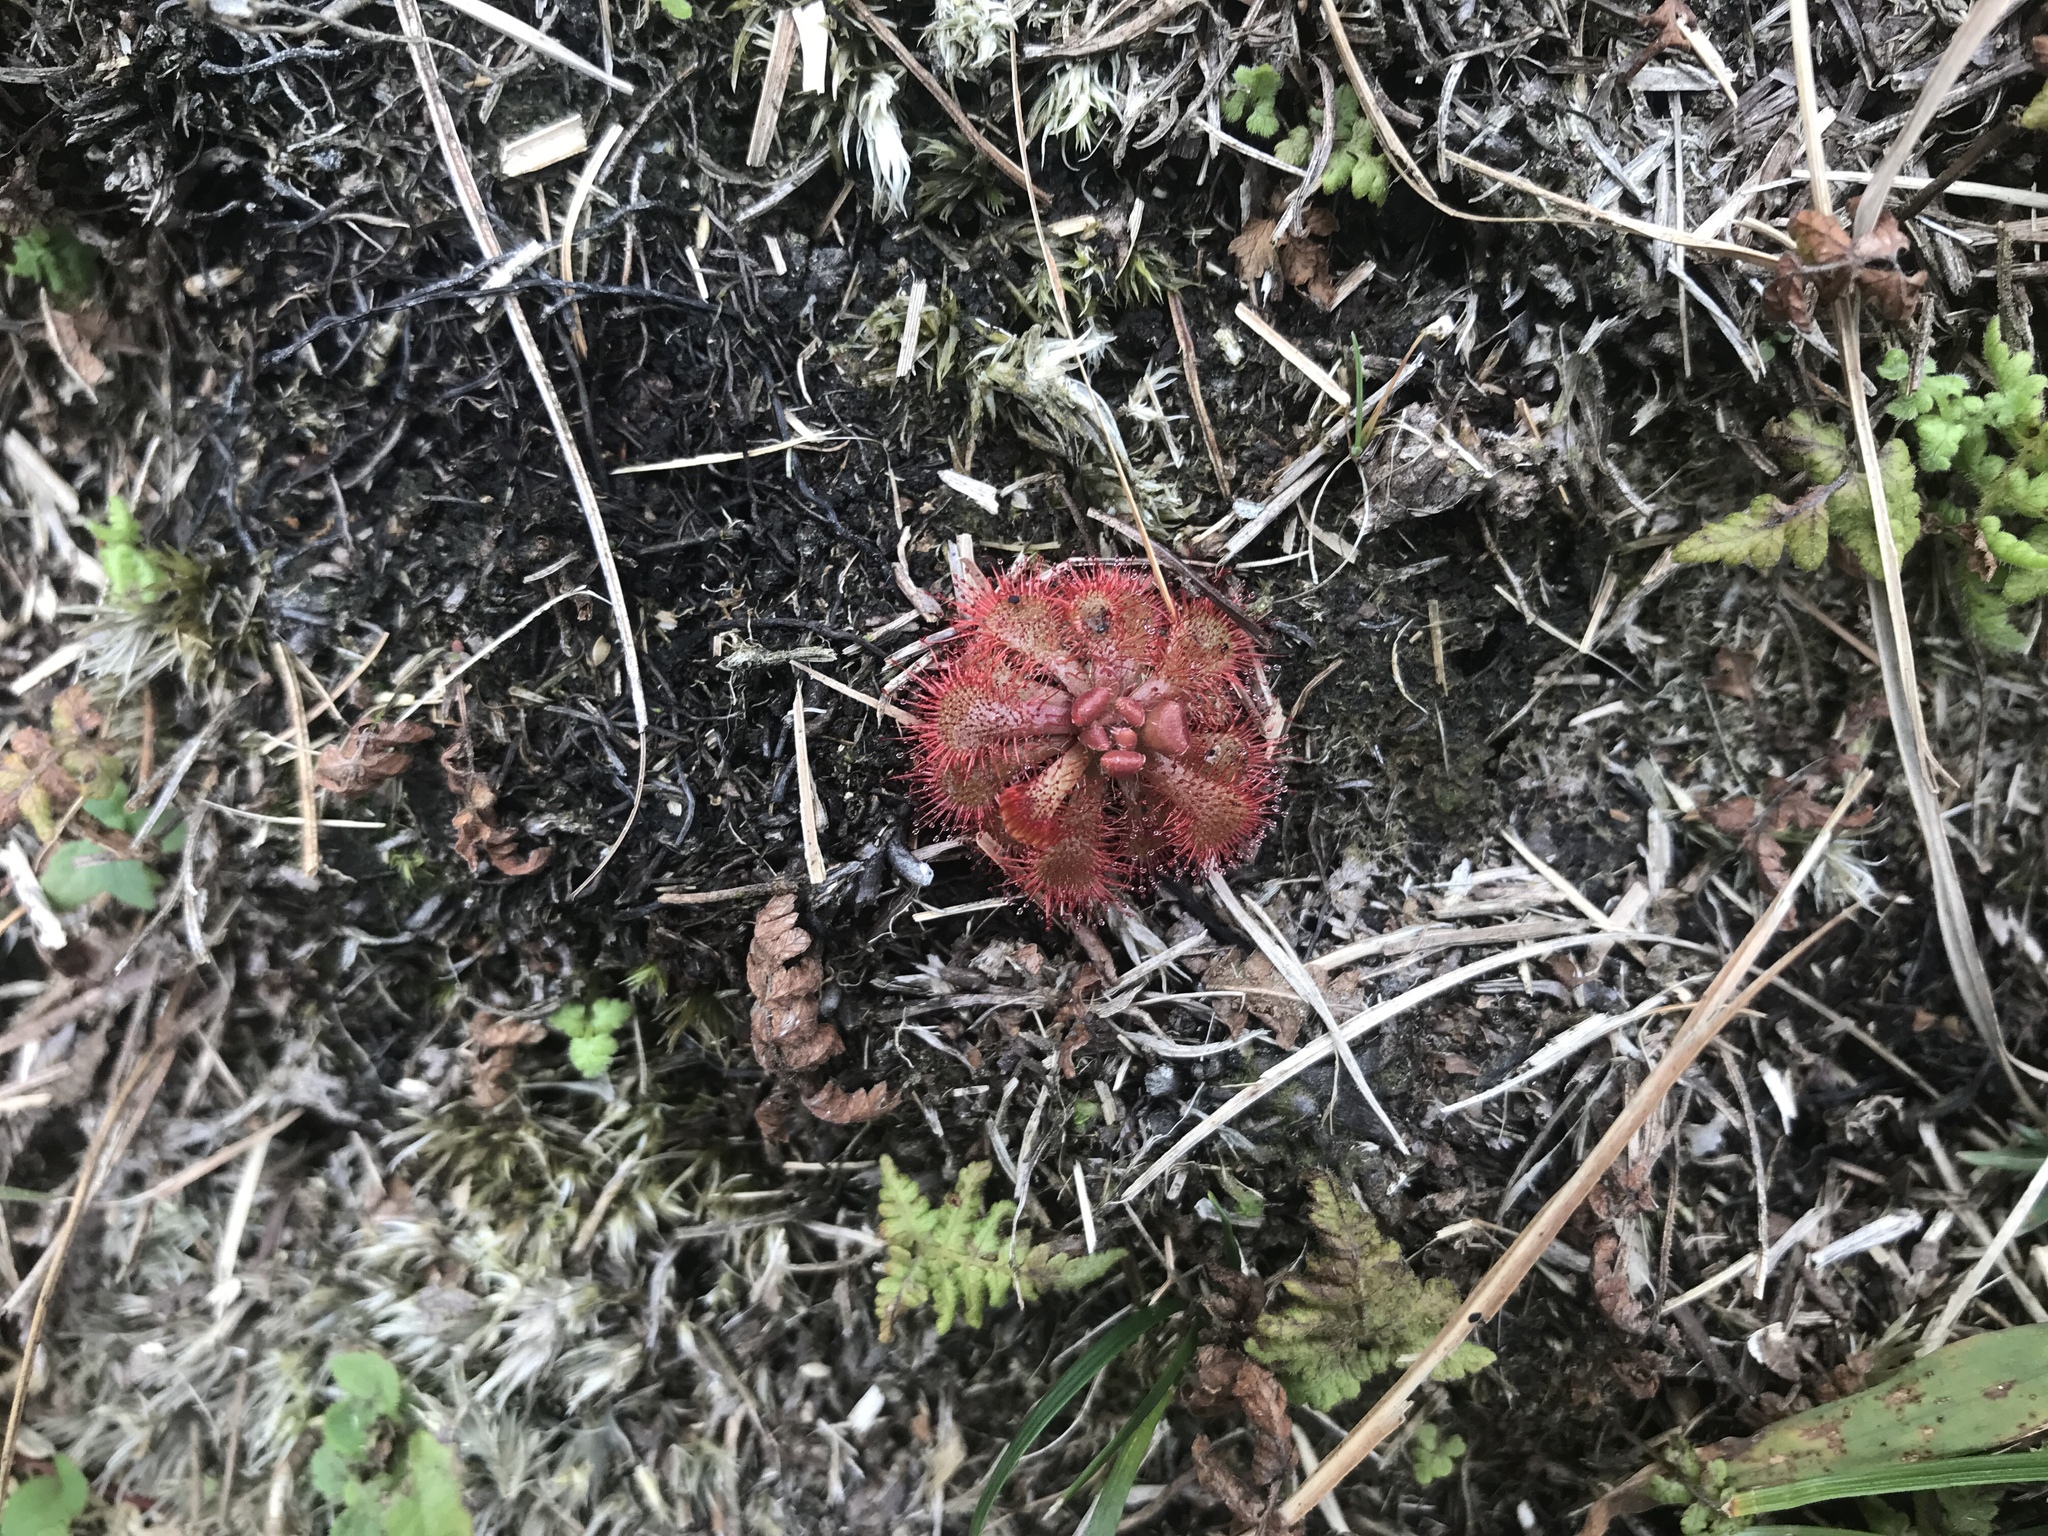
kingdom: Plantae
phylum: Tracheophyta
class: Magnoliopsida
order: Caryophyllales
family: Droseraceae
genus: Drosera
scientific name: Drosera spatulata
